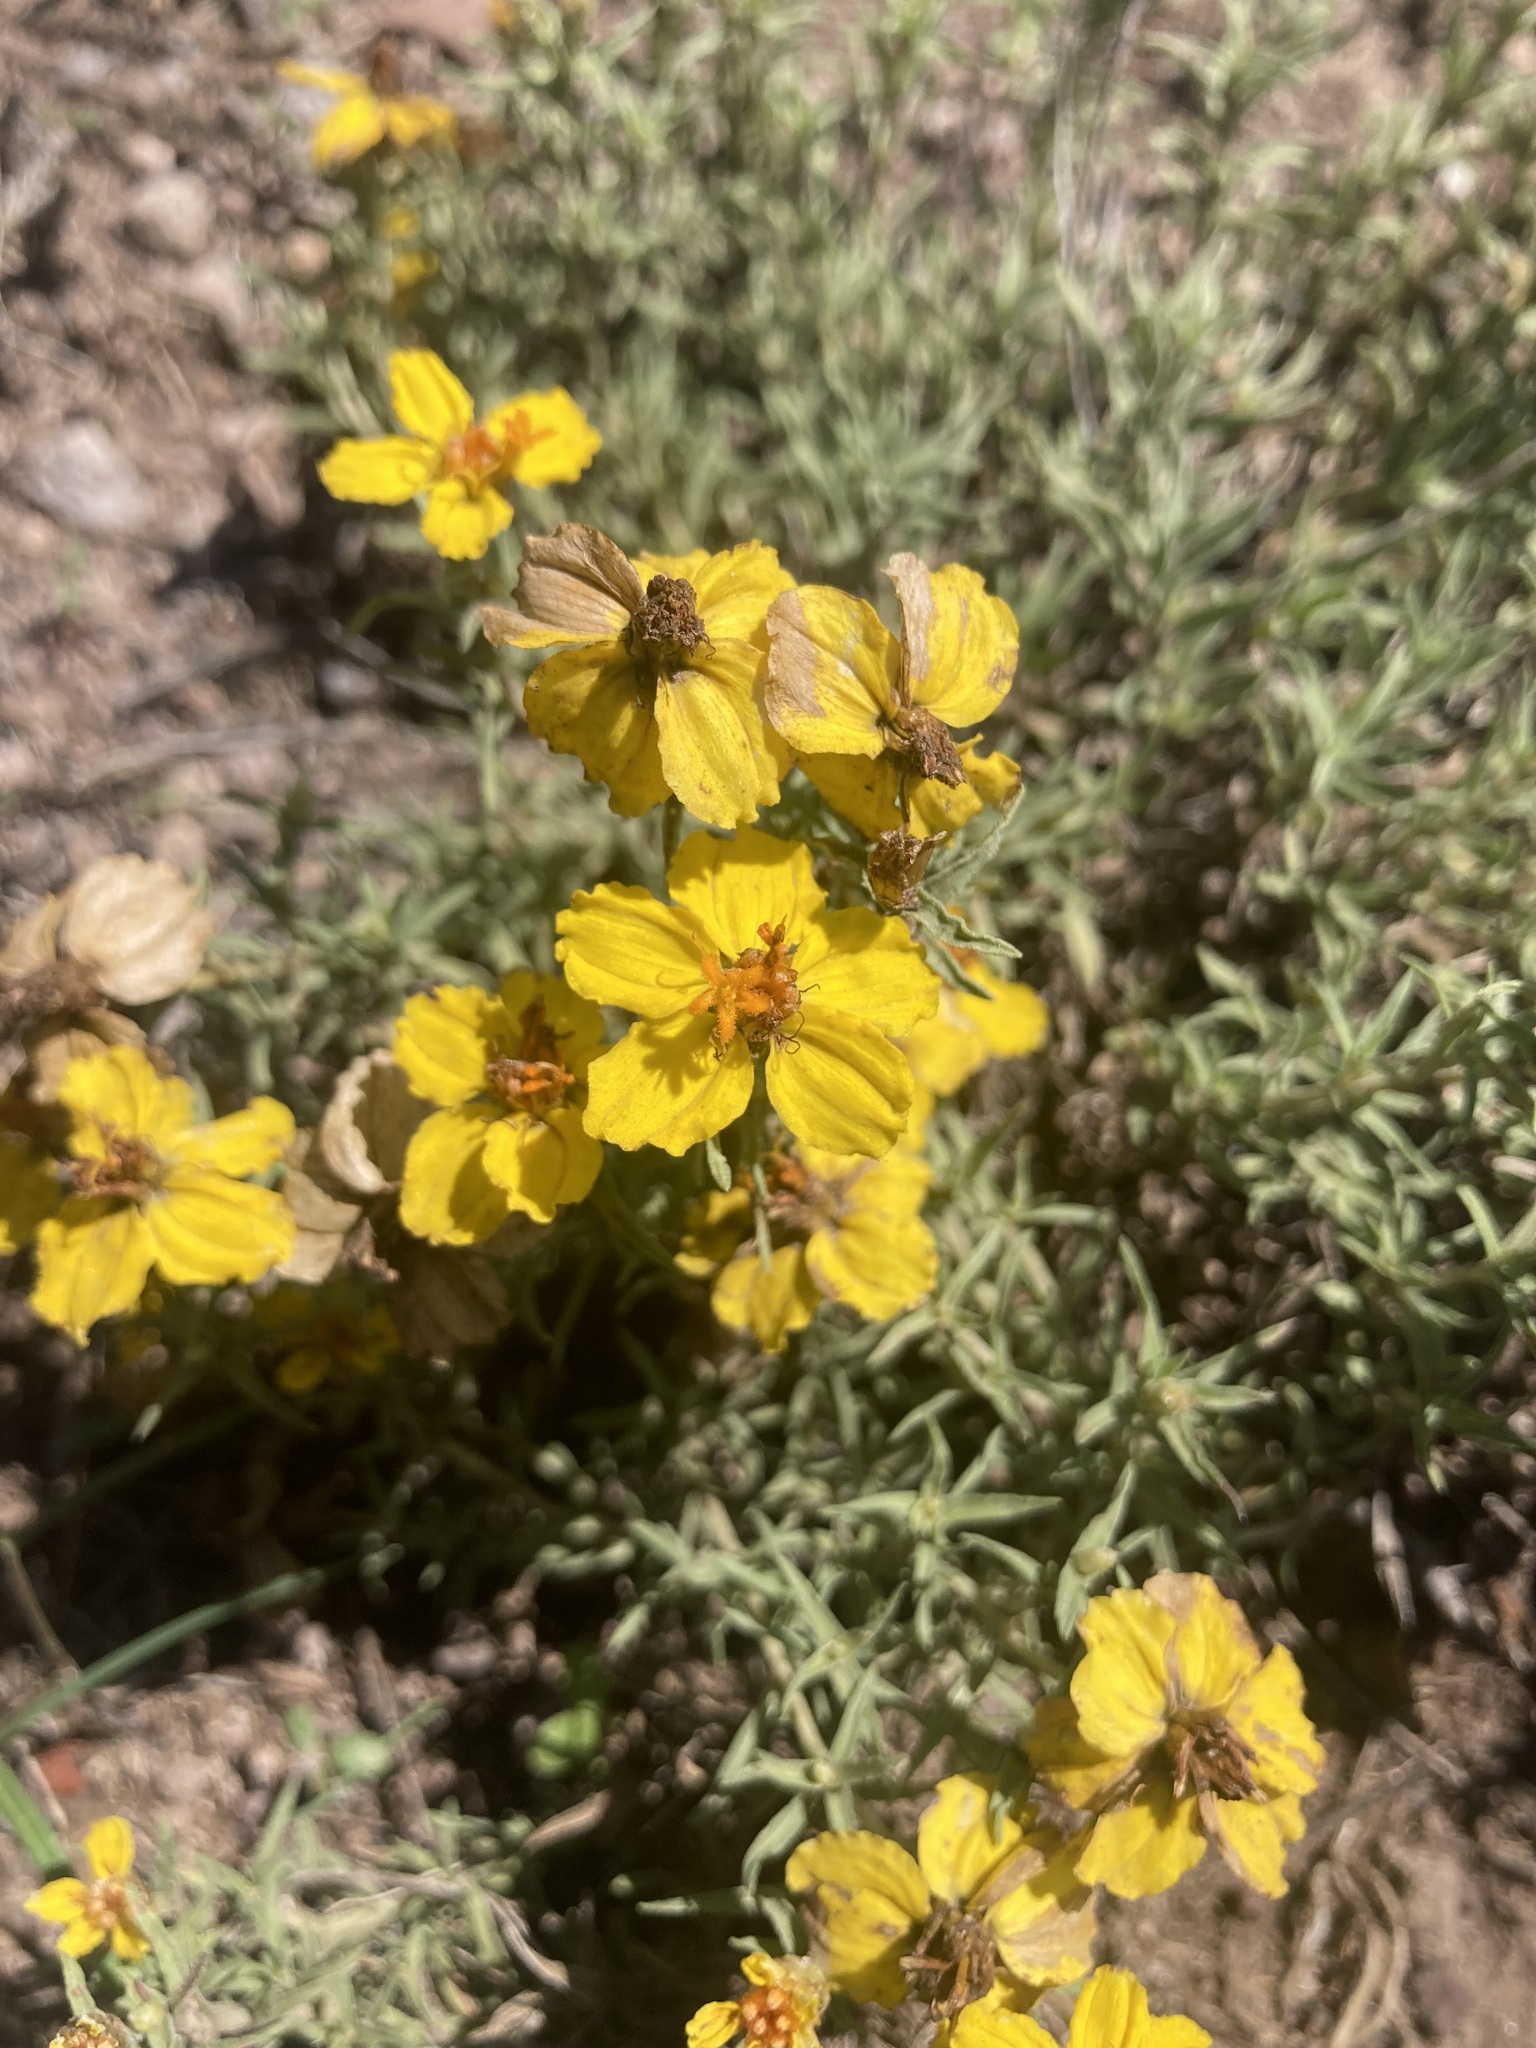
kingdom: Plantae
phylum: Tracheophyta
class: Magnoliopsida
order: Asterales
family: Asteraceae
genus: Zinnia
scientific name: Zinnia grandiflora
